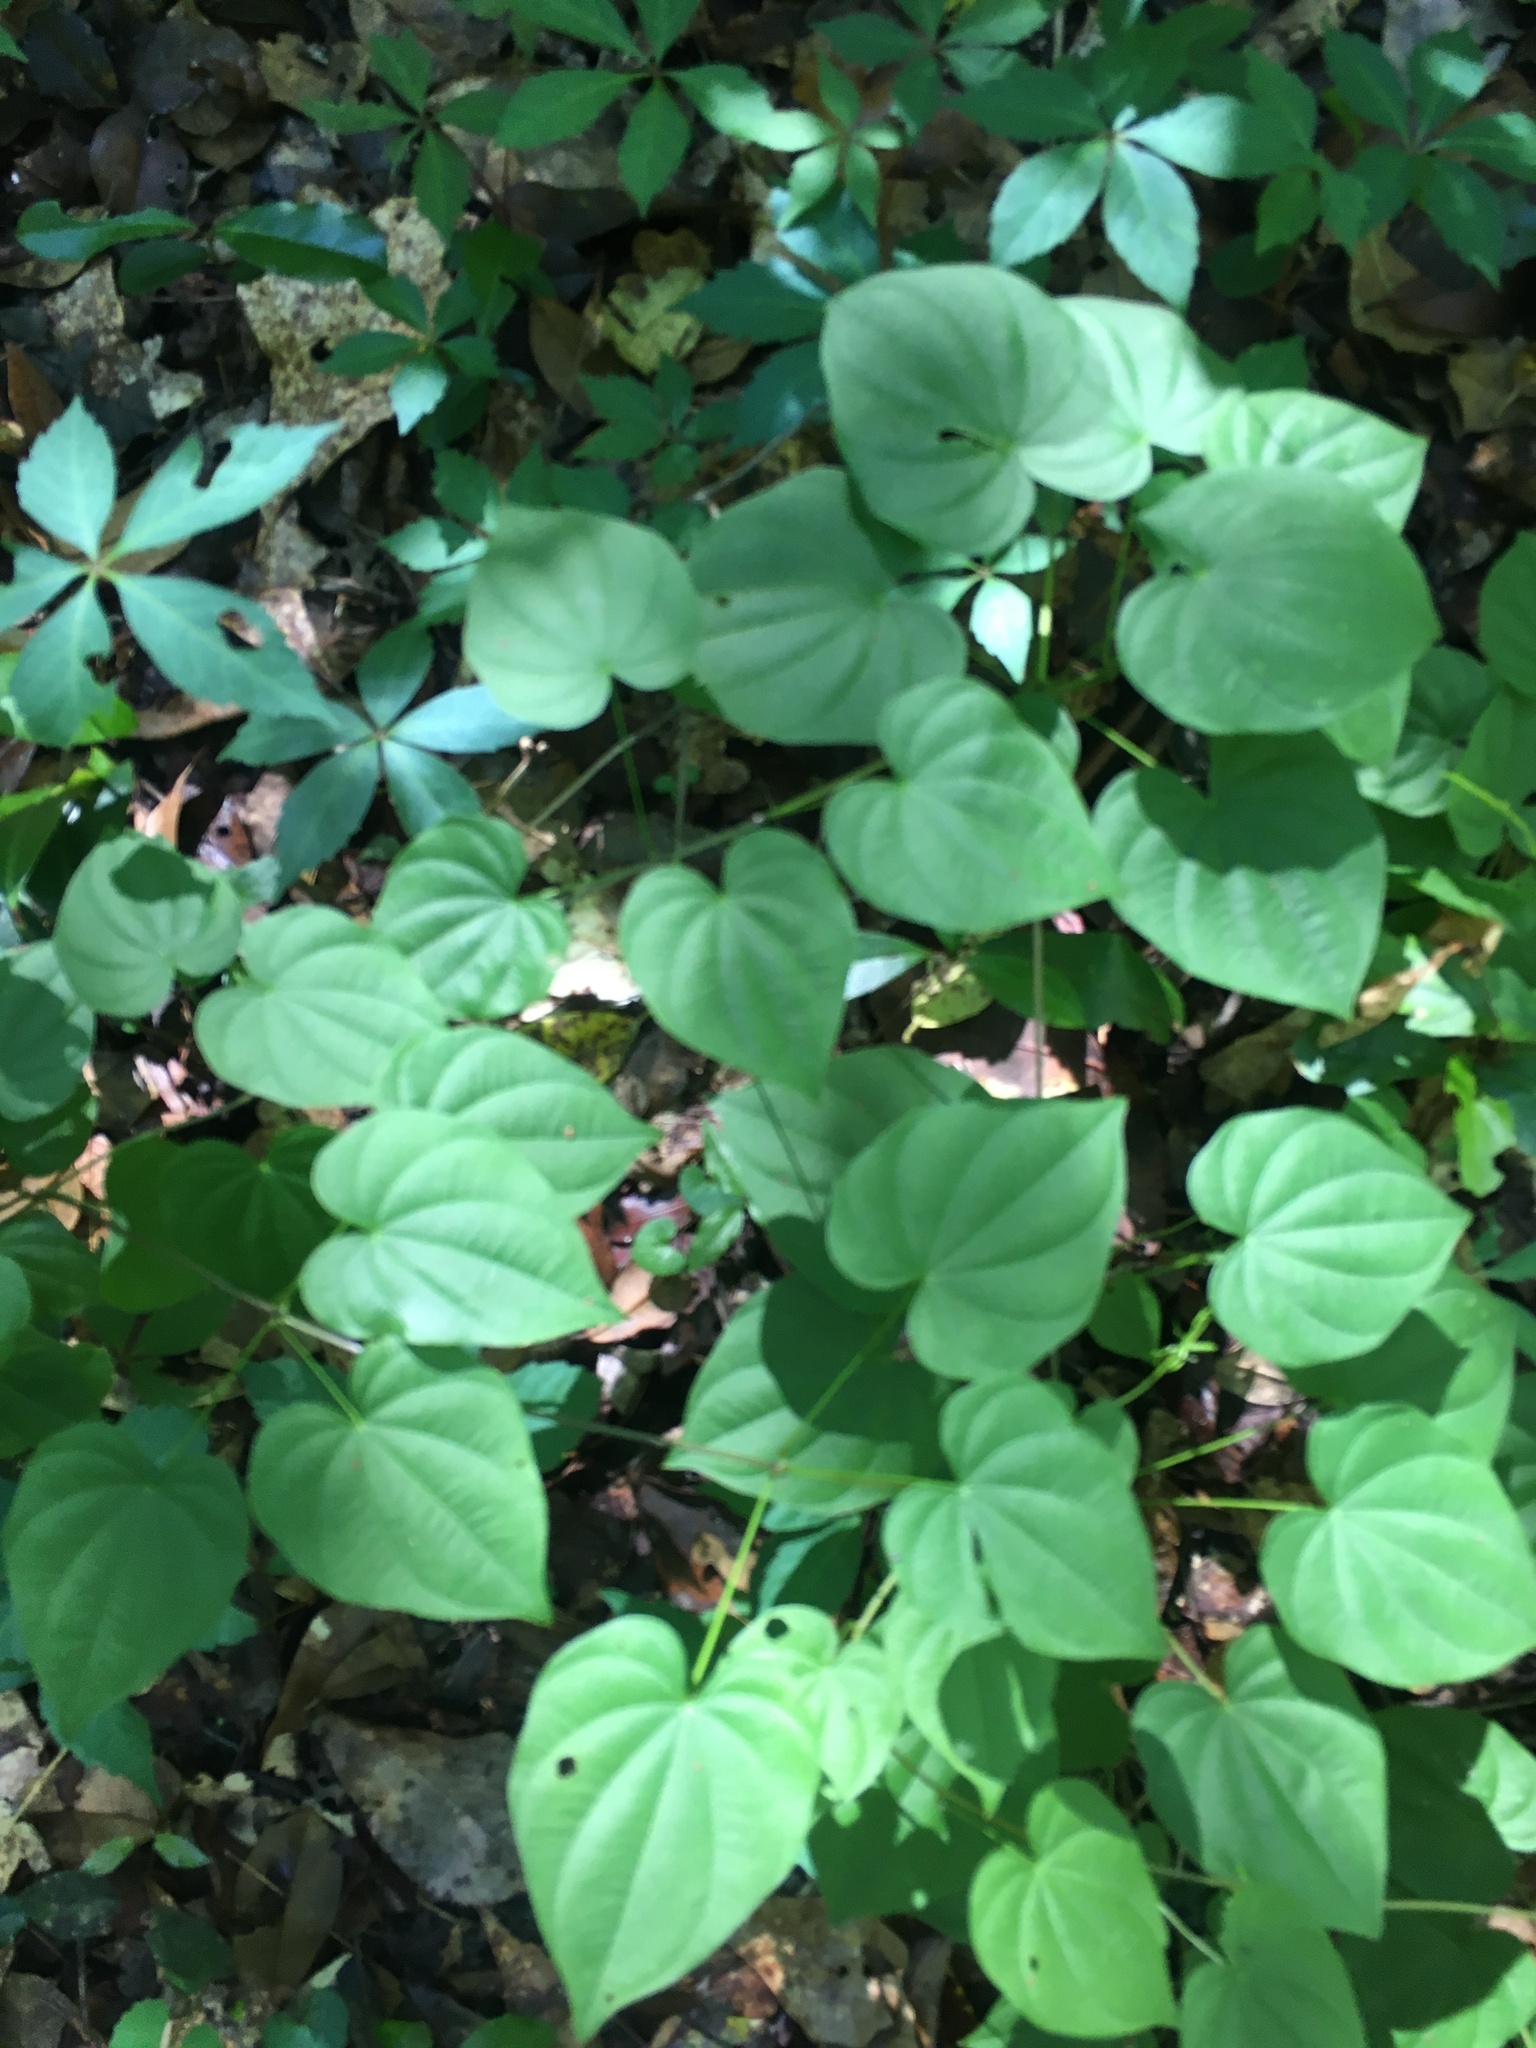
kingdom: Plantae
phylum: Tracheophyta
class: Liliopsida
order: Dioscoreales
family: Dioscoreaceae
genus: Dioscorea
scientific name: Dioscorea villosa
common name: Wild yam
